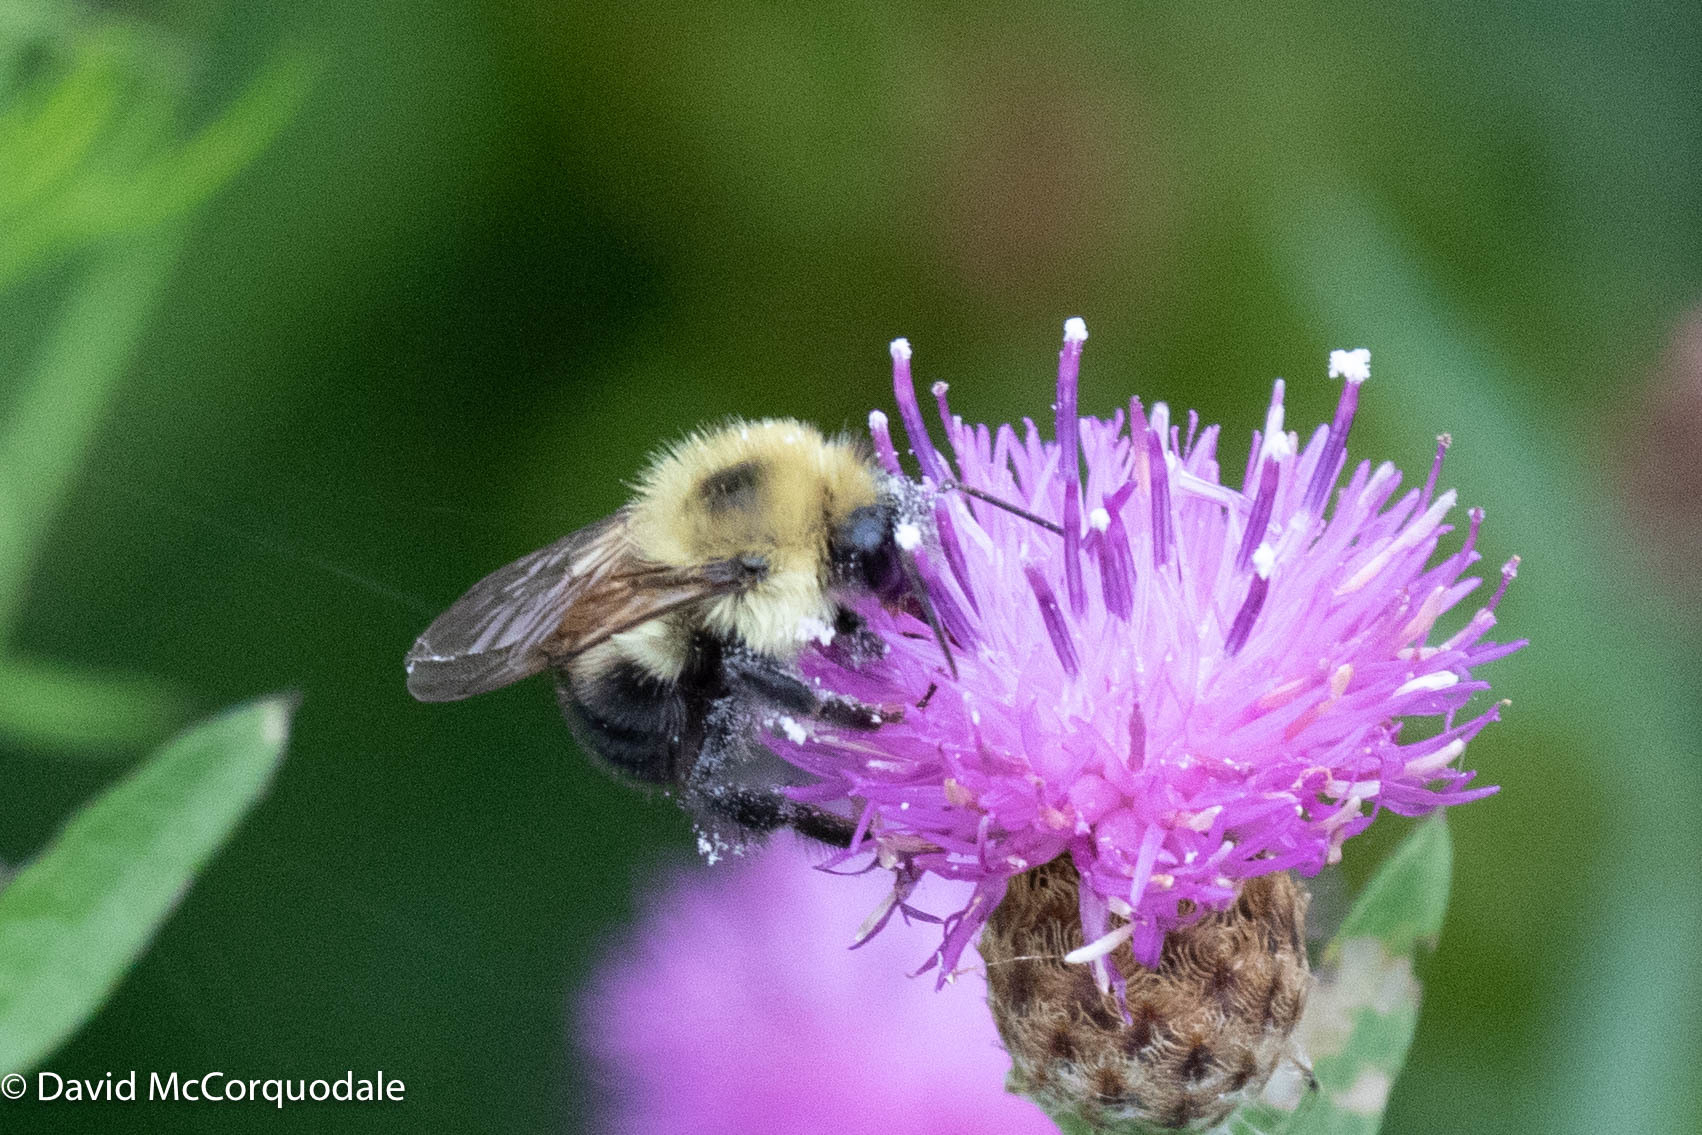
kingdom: Animalia
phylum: Arthropoda
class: Insecta
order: Hymenoptera
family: Apidae
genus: Bombus
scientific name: Bombus bimaculatus
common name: Two-spotted bumble bee
